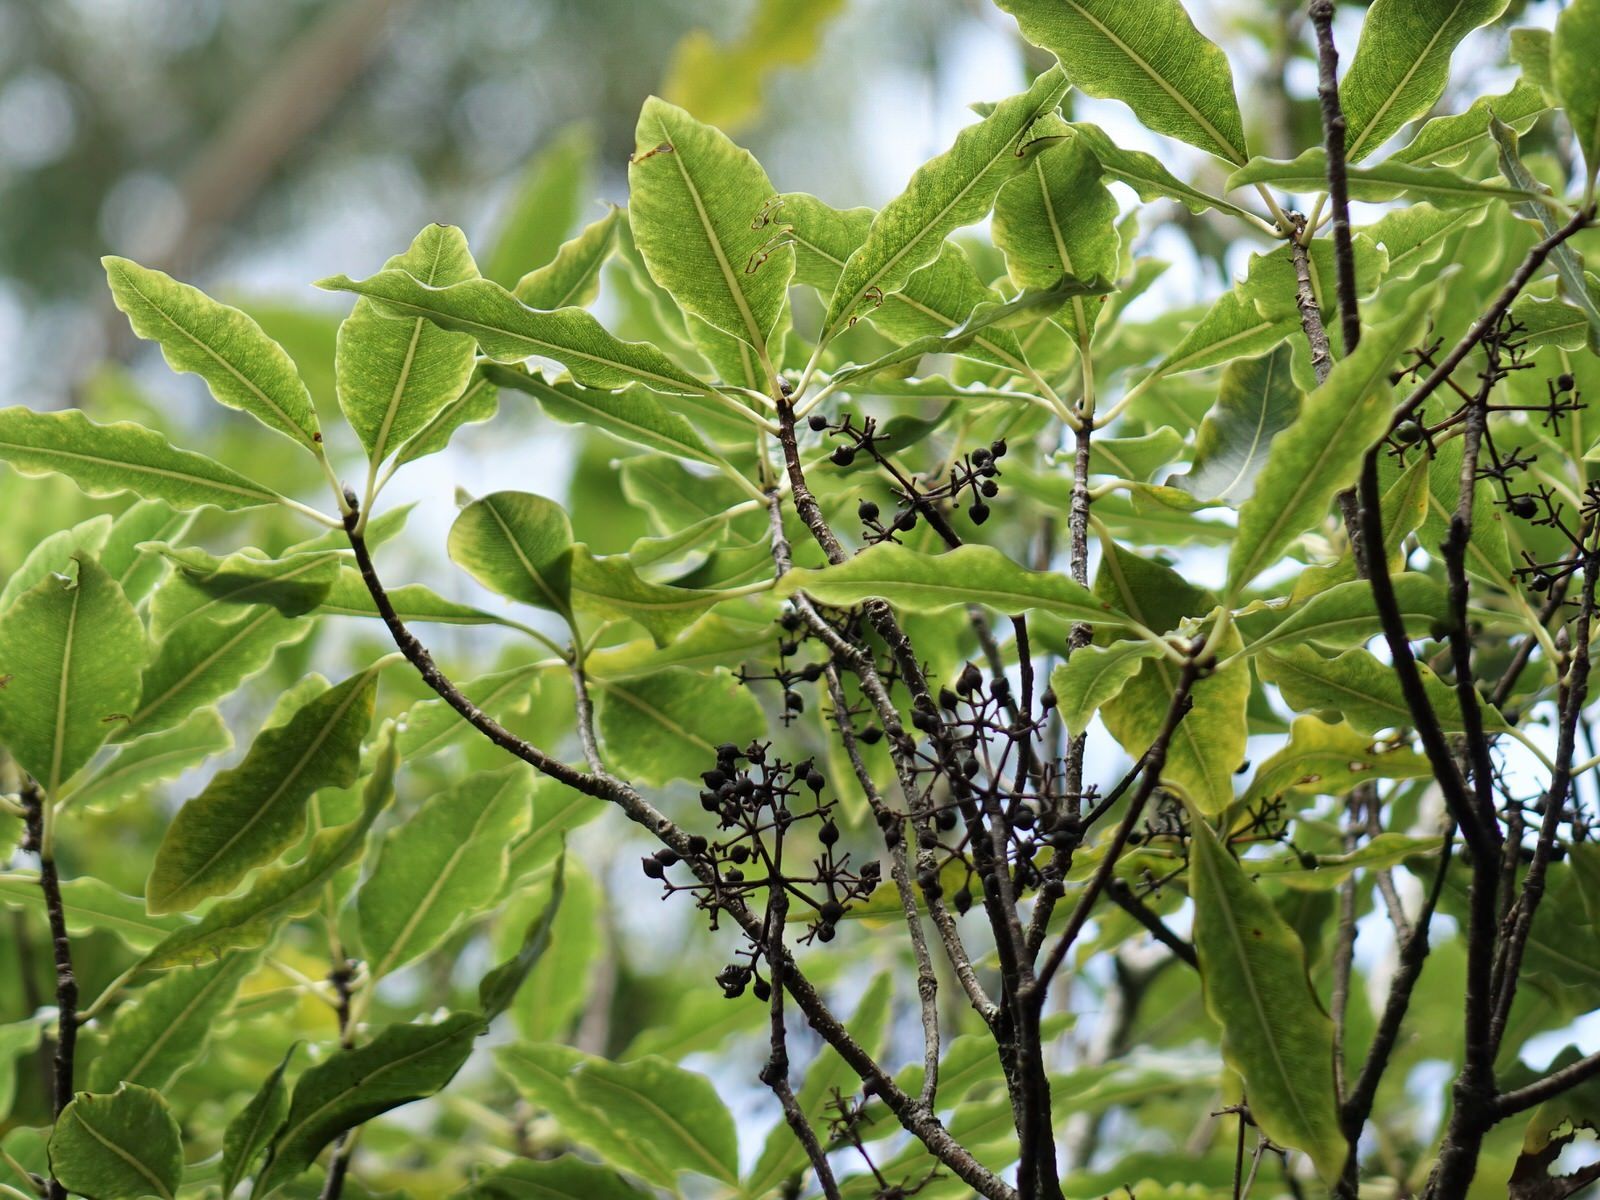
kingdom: Plantae
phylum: Tracheophyta
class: Magnoliopsida
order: Apiales
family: Pittosporaceae
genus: Pittosporum
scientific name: Pittosporum eugenioides
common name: Lemonwood
